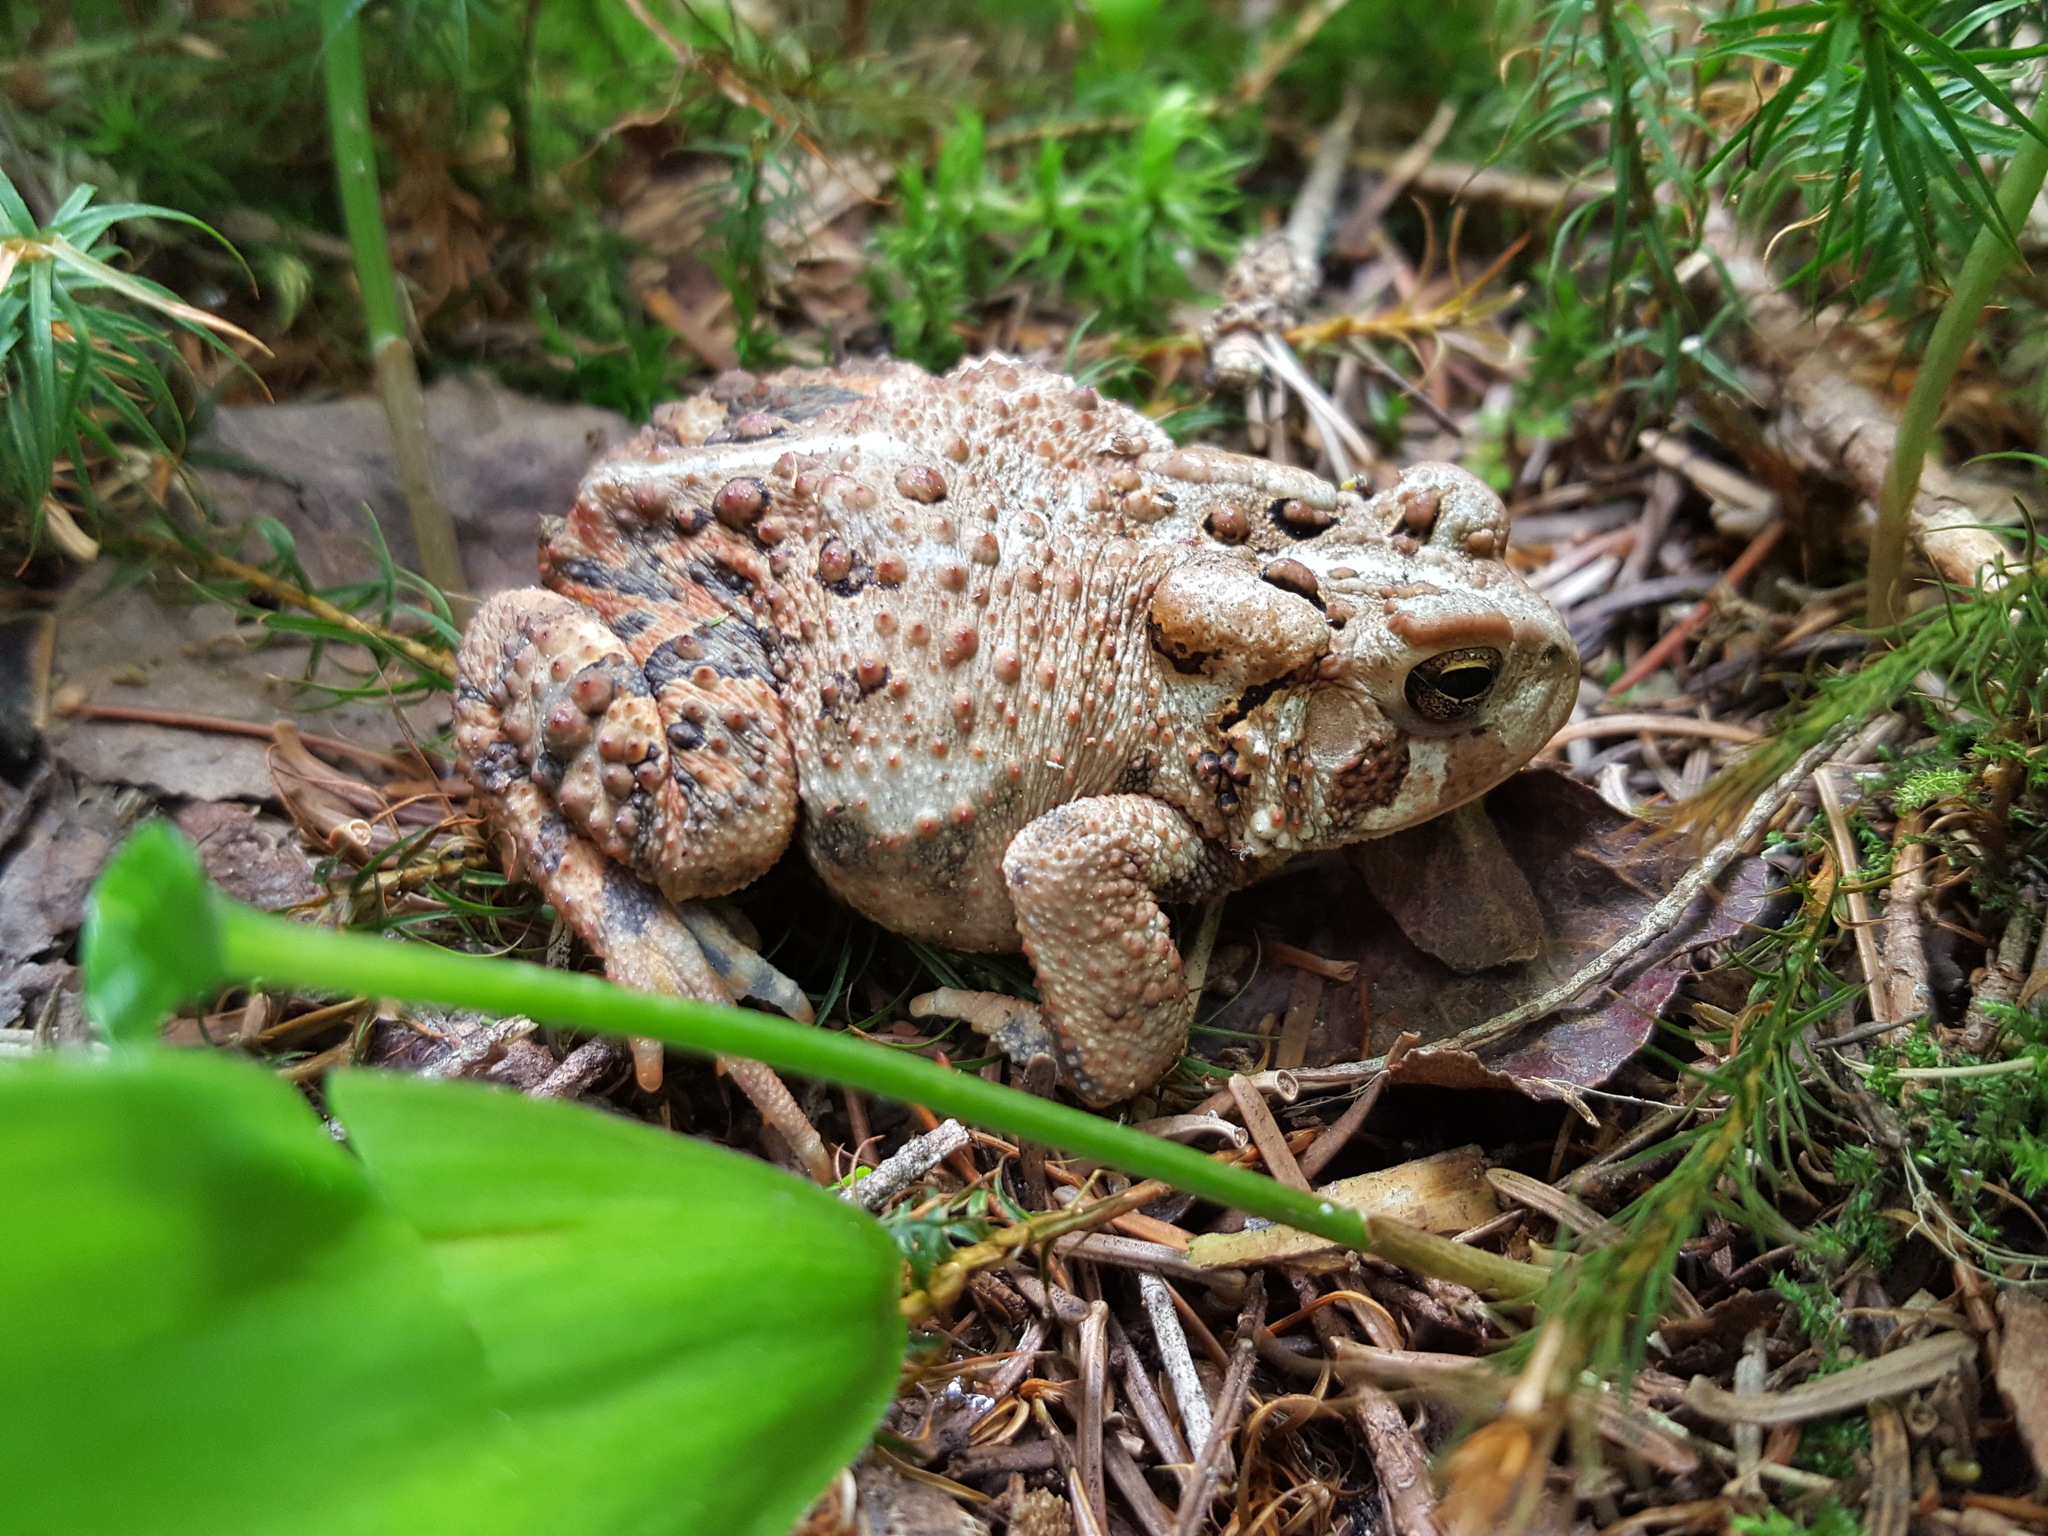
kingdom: Animalia
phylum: Chordata
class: Amphibia
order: Anura
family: Bufonidae
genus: Anaxyrus
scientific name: Anaxyrus americanus
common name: American toad
